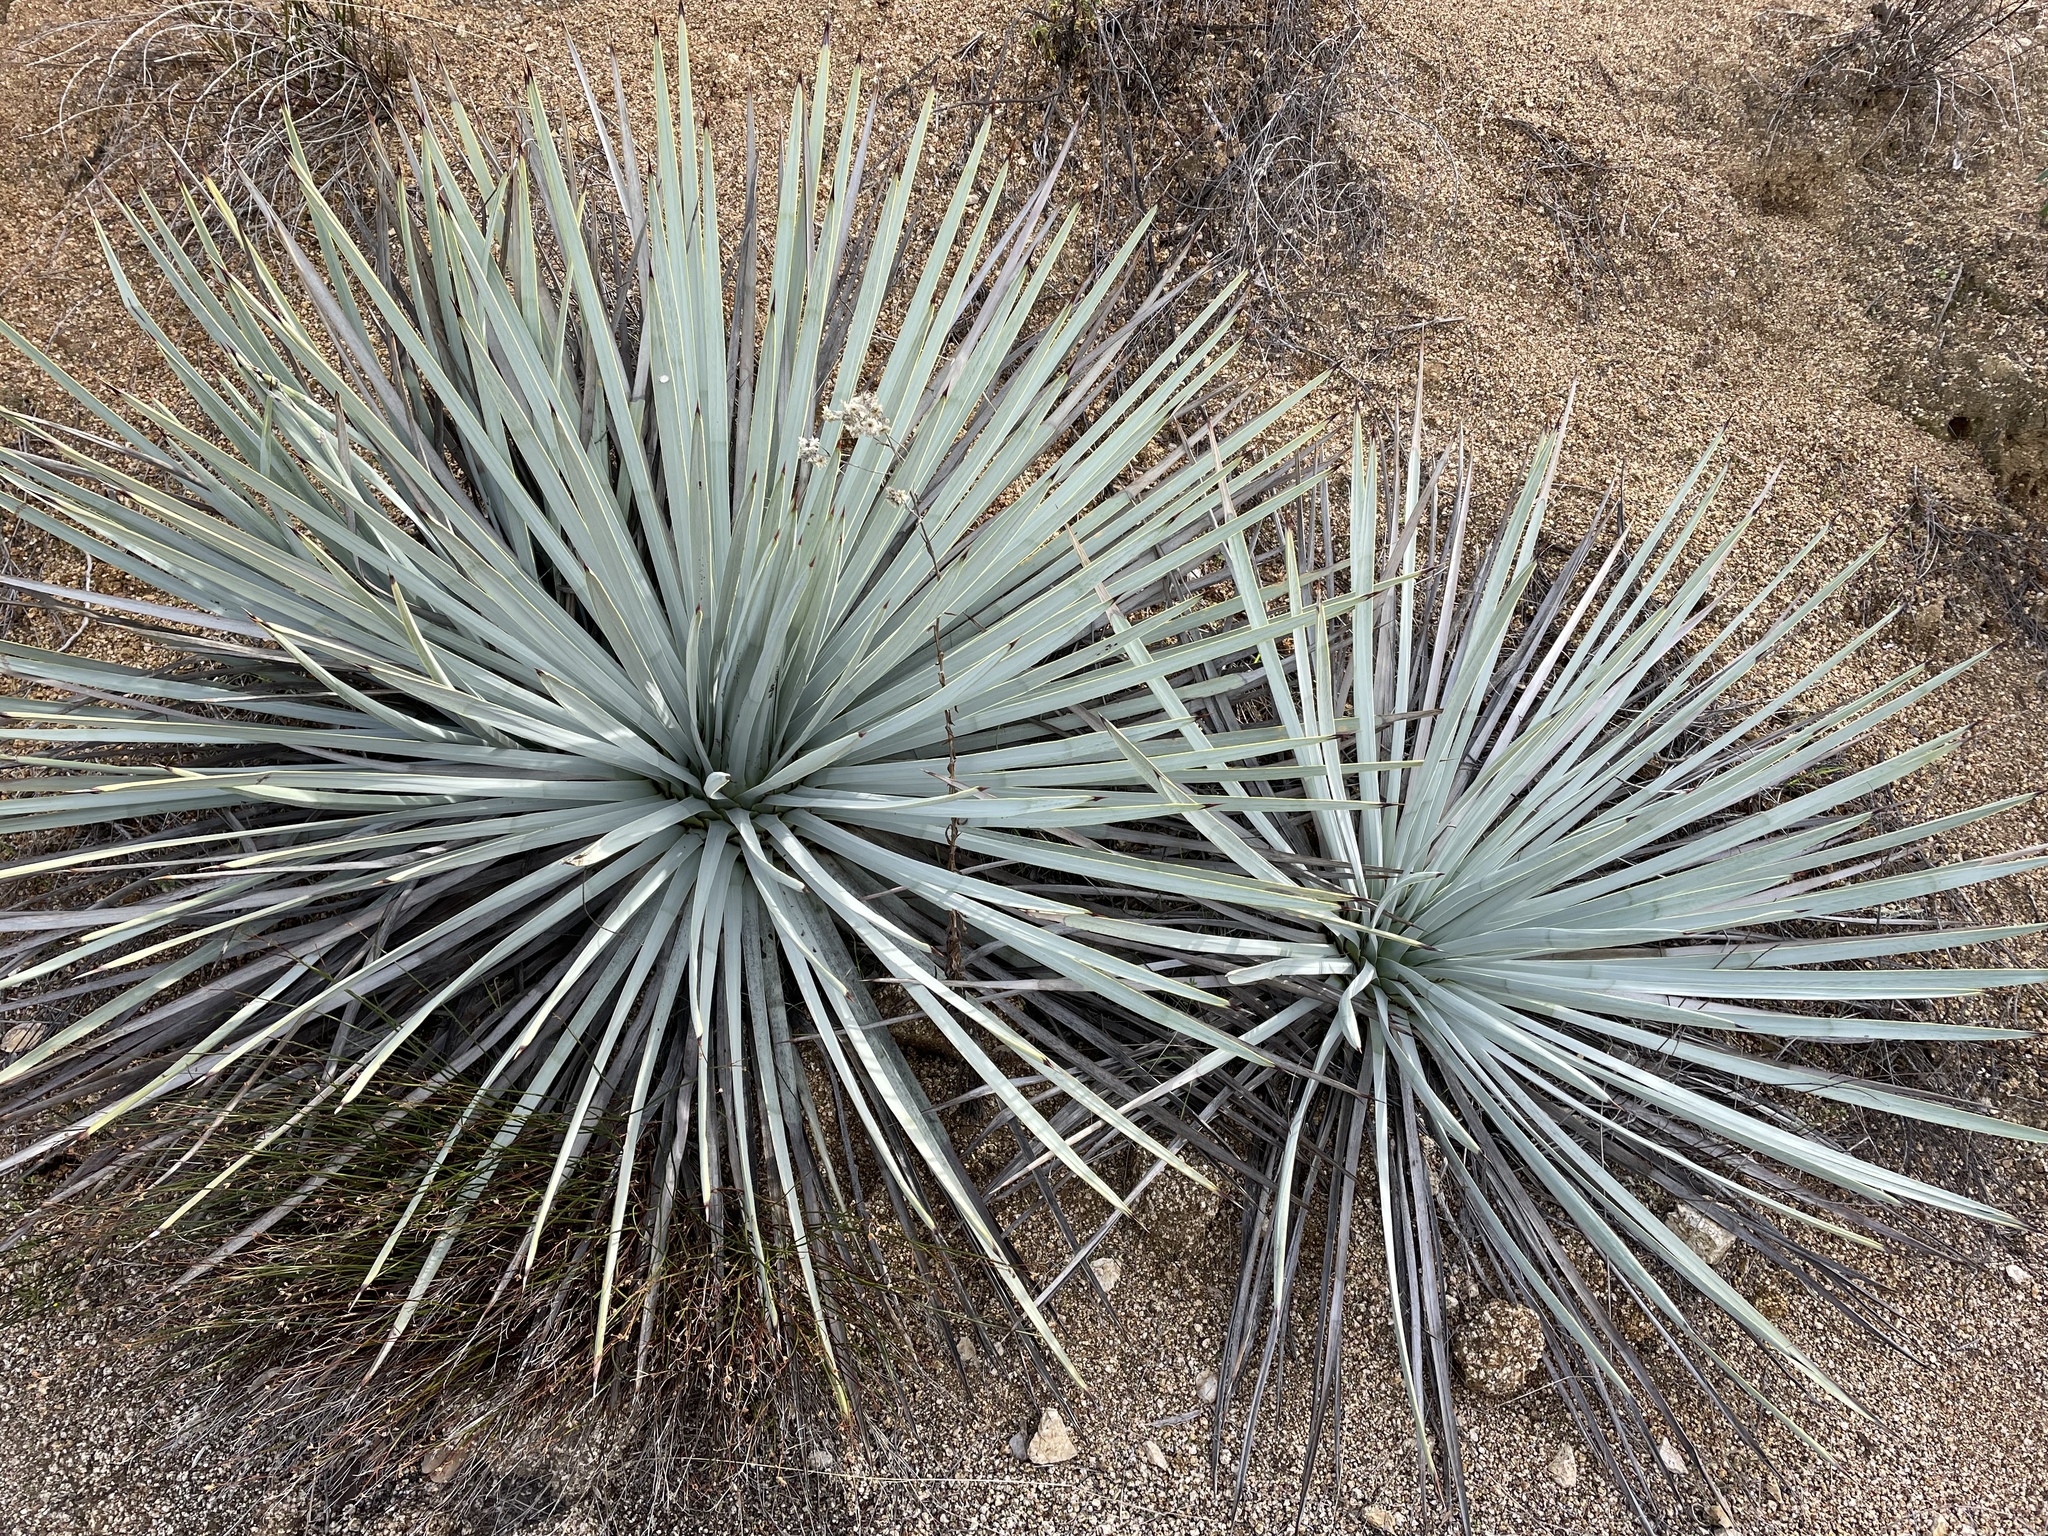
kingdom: Plantae
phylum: Tracheophyta
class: Liliopsida
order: Asparagales
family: Asparagaceae
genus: Hesperoyucca
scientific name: Hesperoyucca whipplei
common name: Our lord's-candle
